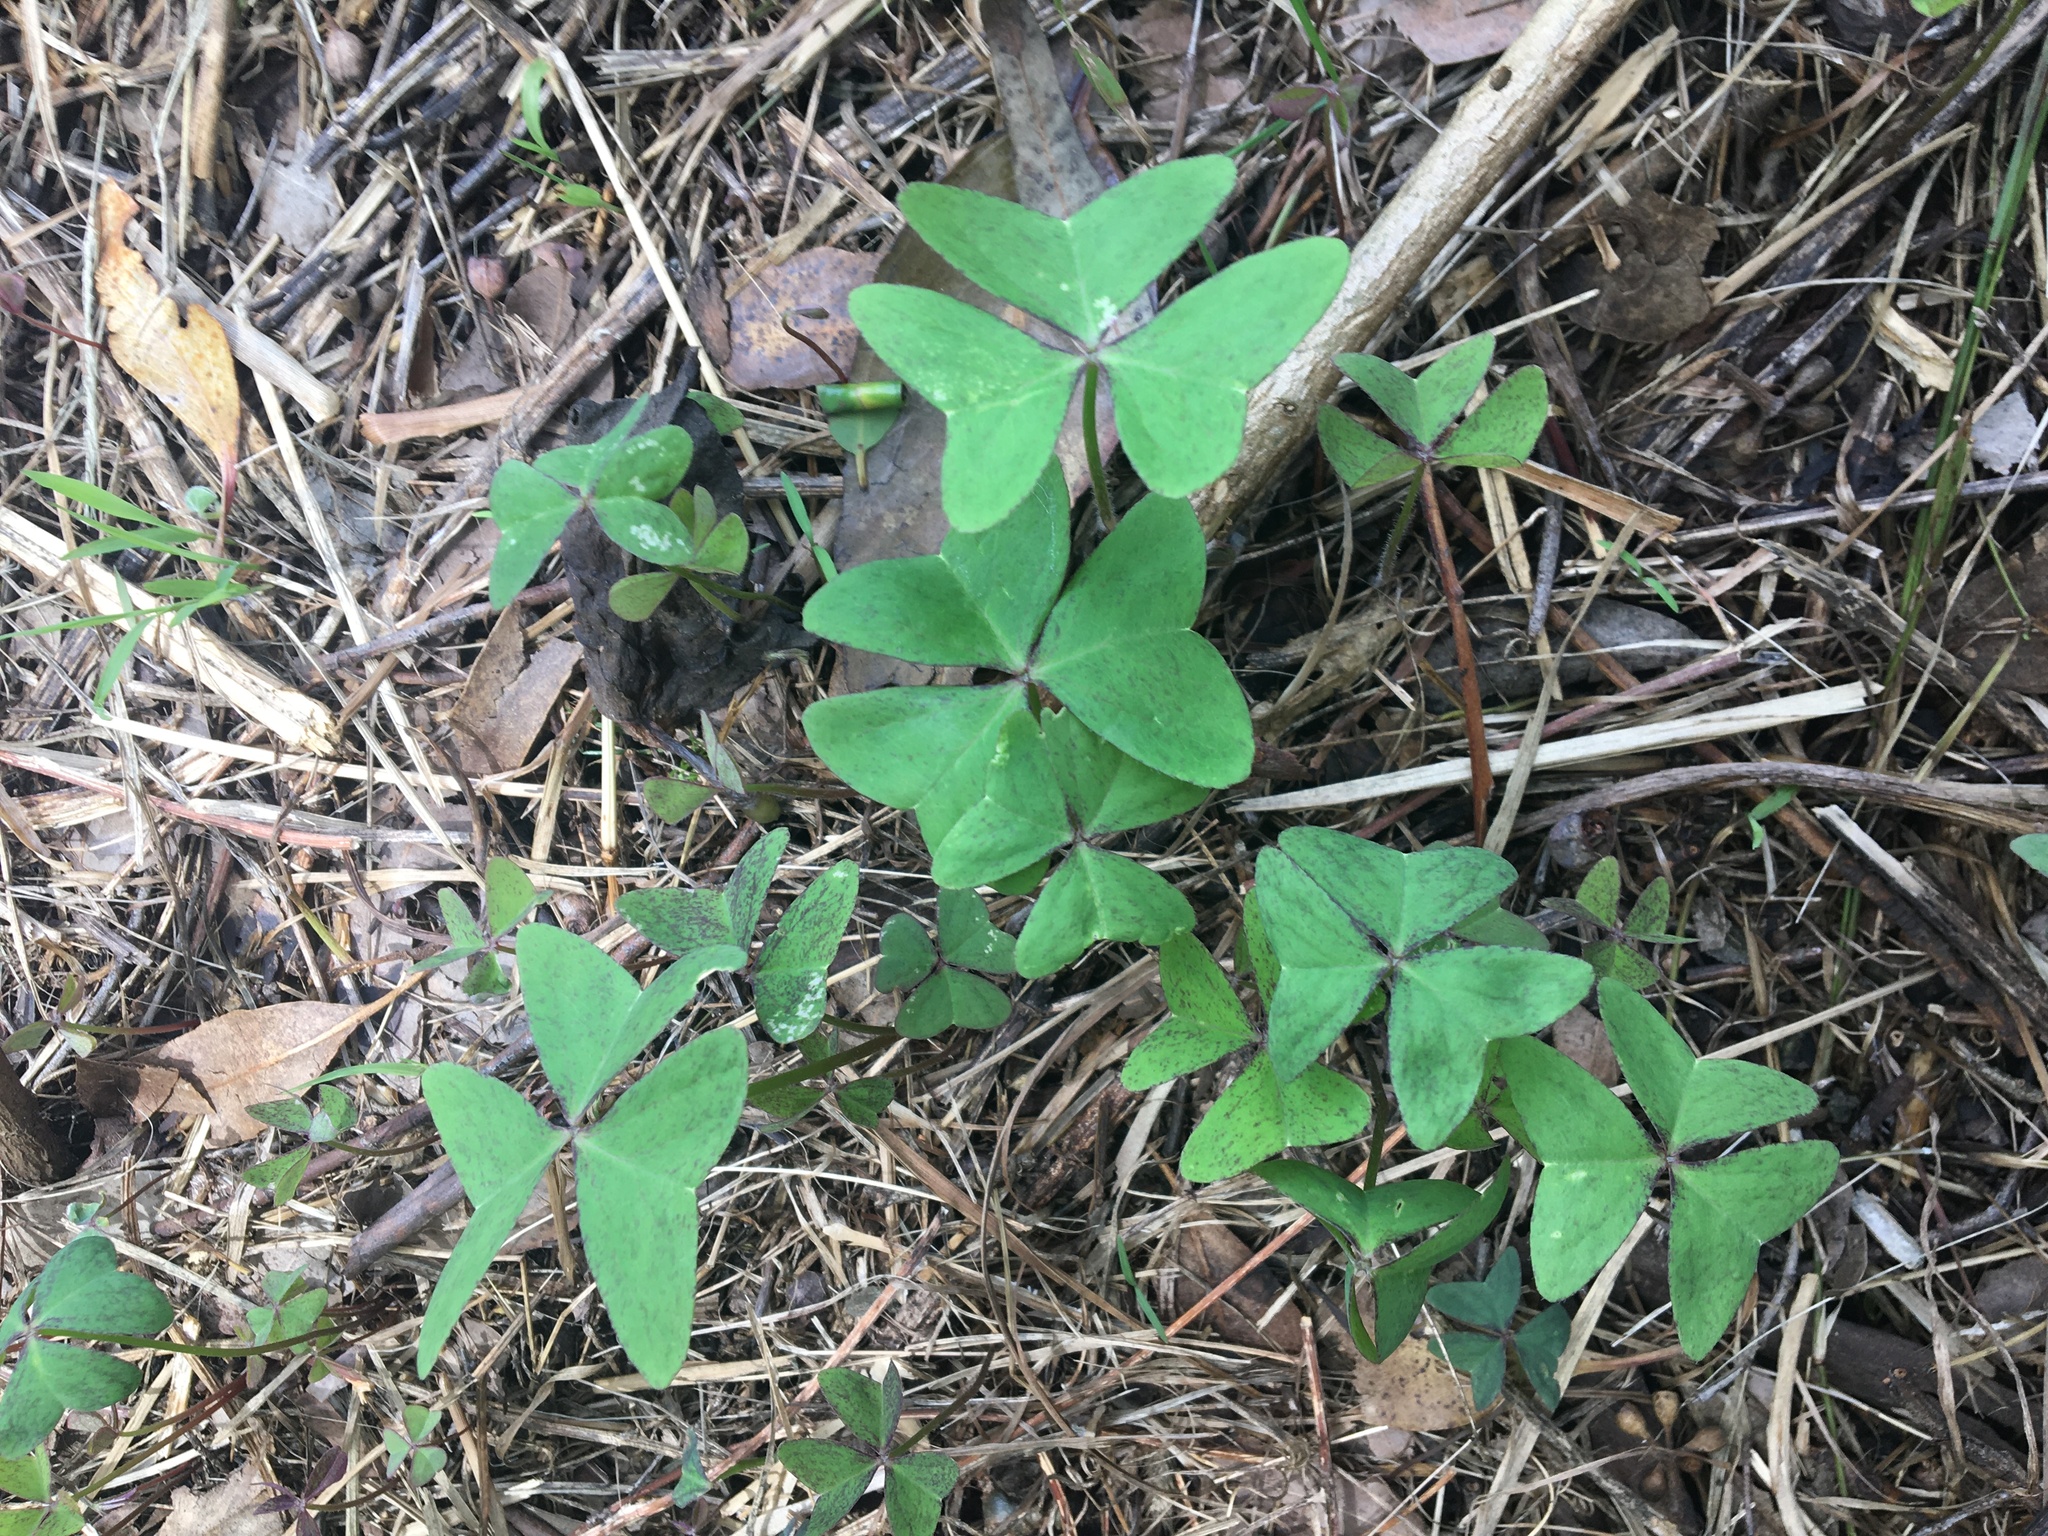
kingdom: Plantae
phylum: Tracheophyta
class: Magnoliopsida
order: Oxalidales
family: Oxalidaceae
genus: Oxalis
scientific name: Oxalis latifolia
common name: Garden pink-sorrel
